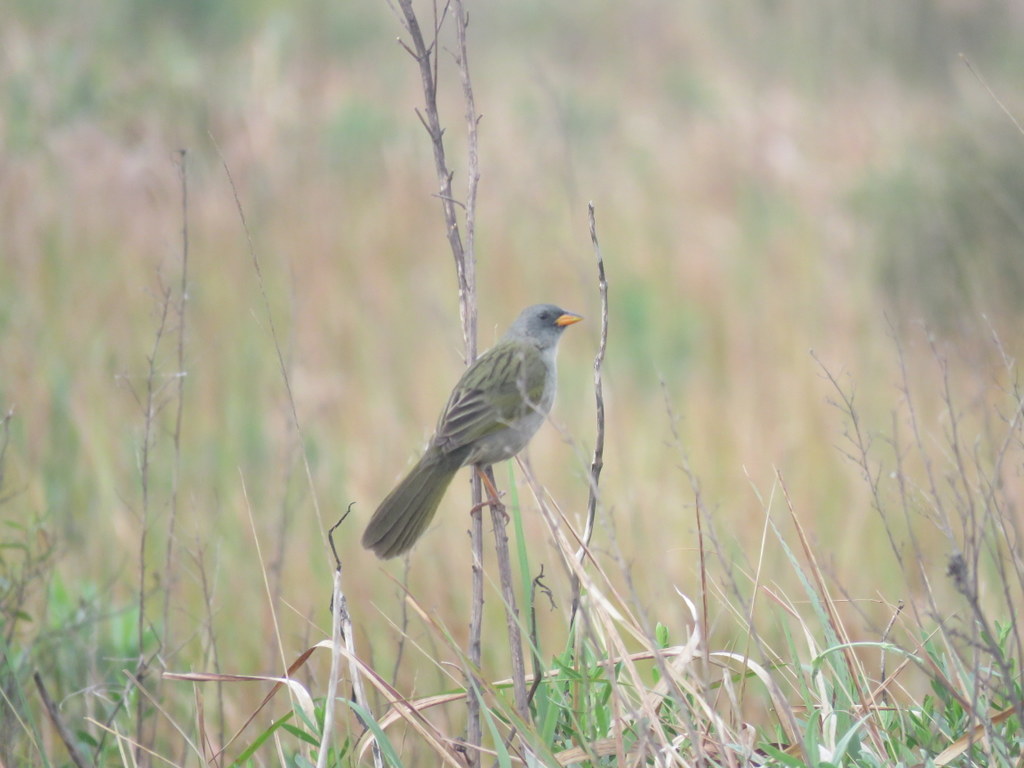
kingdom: Animalia
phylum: Chordata
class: Aves
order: Passeriformes
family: Thraupidae
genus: Embernagra
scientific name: Embernagra platensis
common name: Pampa finch
